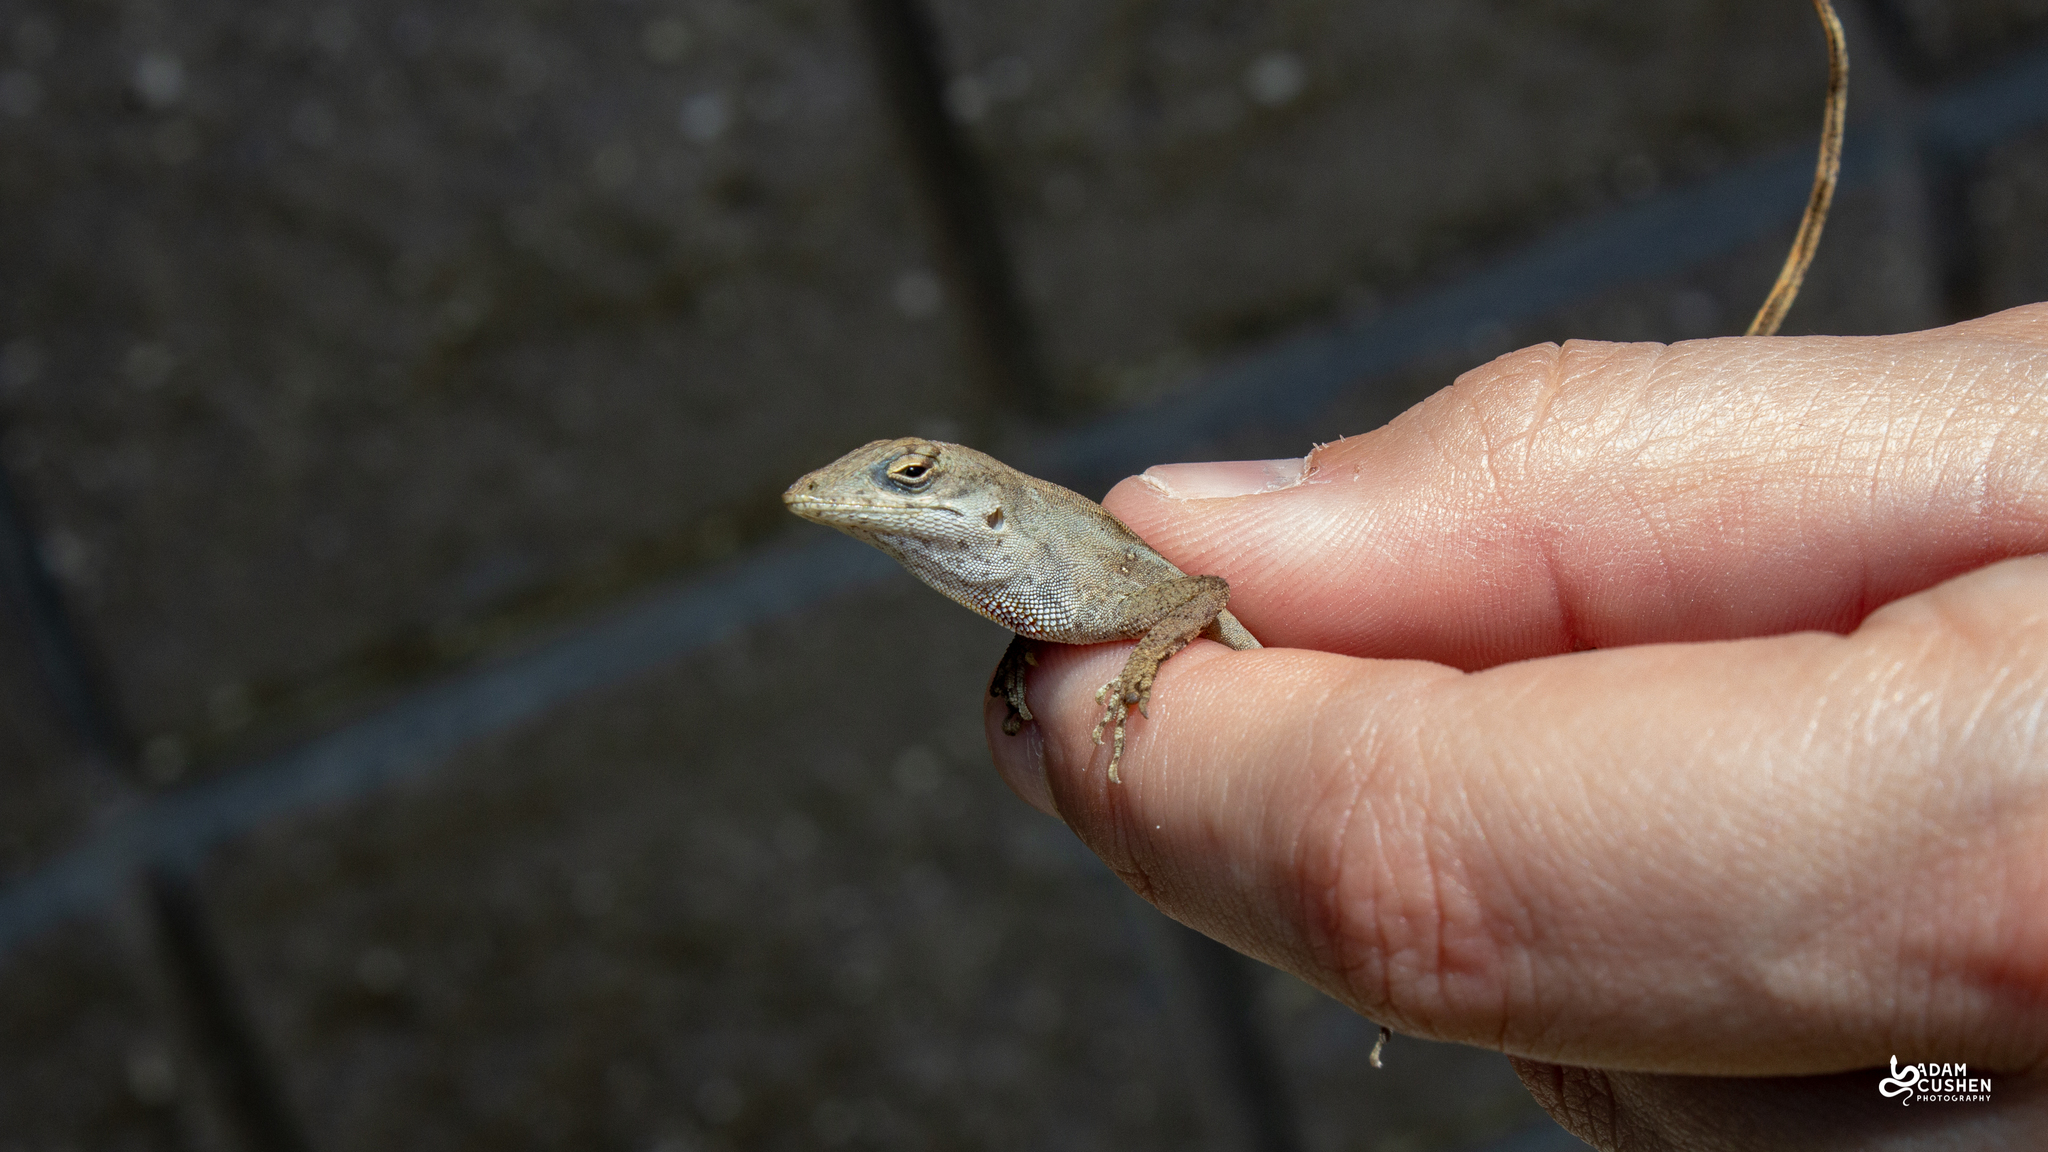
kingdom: Animalia
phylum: Chordata
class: Squamata
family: Dactyloidae
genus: Anolis
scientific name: Anolis sagrei
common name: Brown anole
